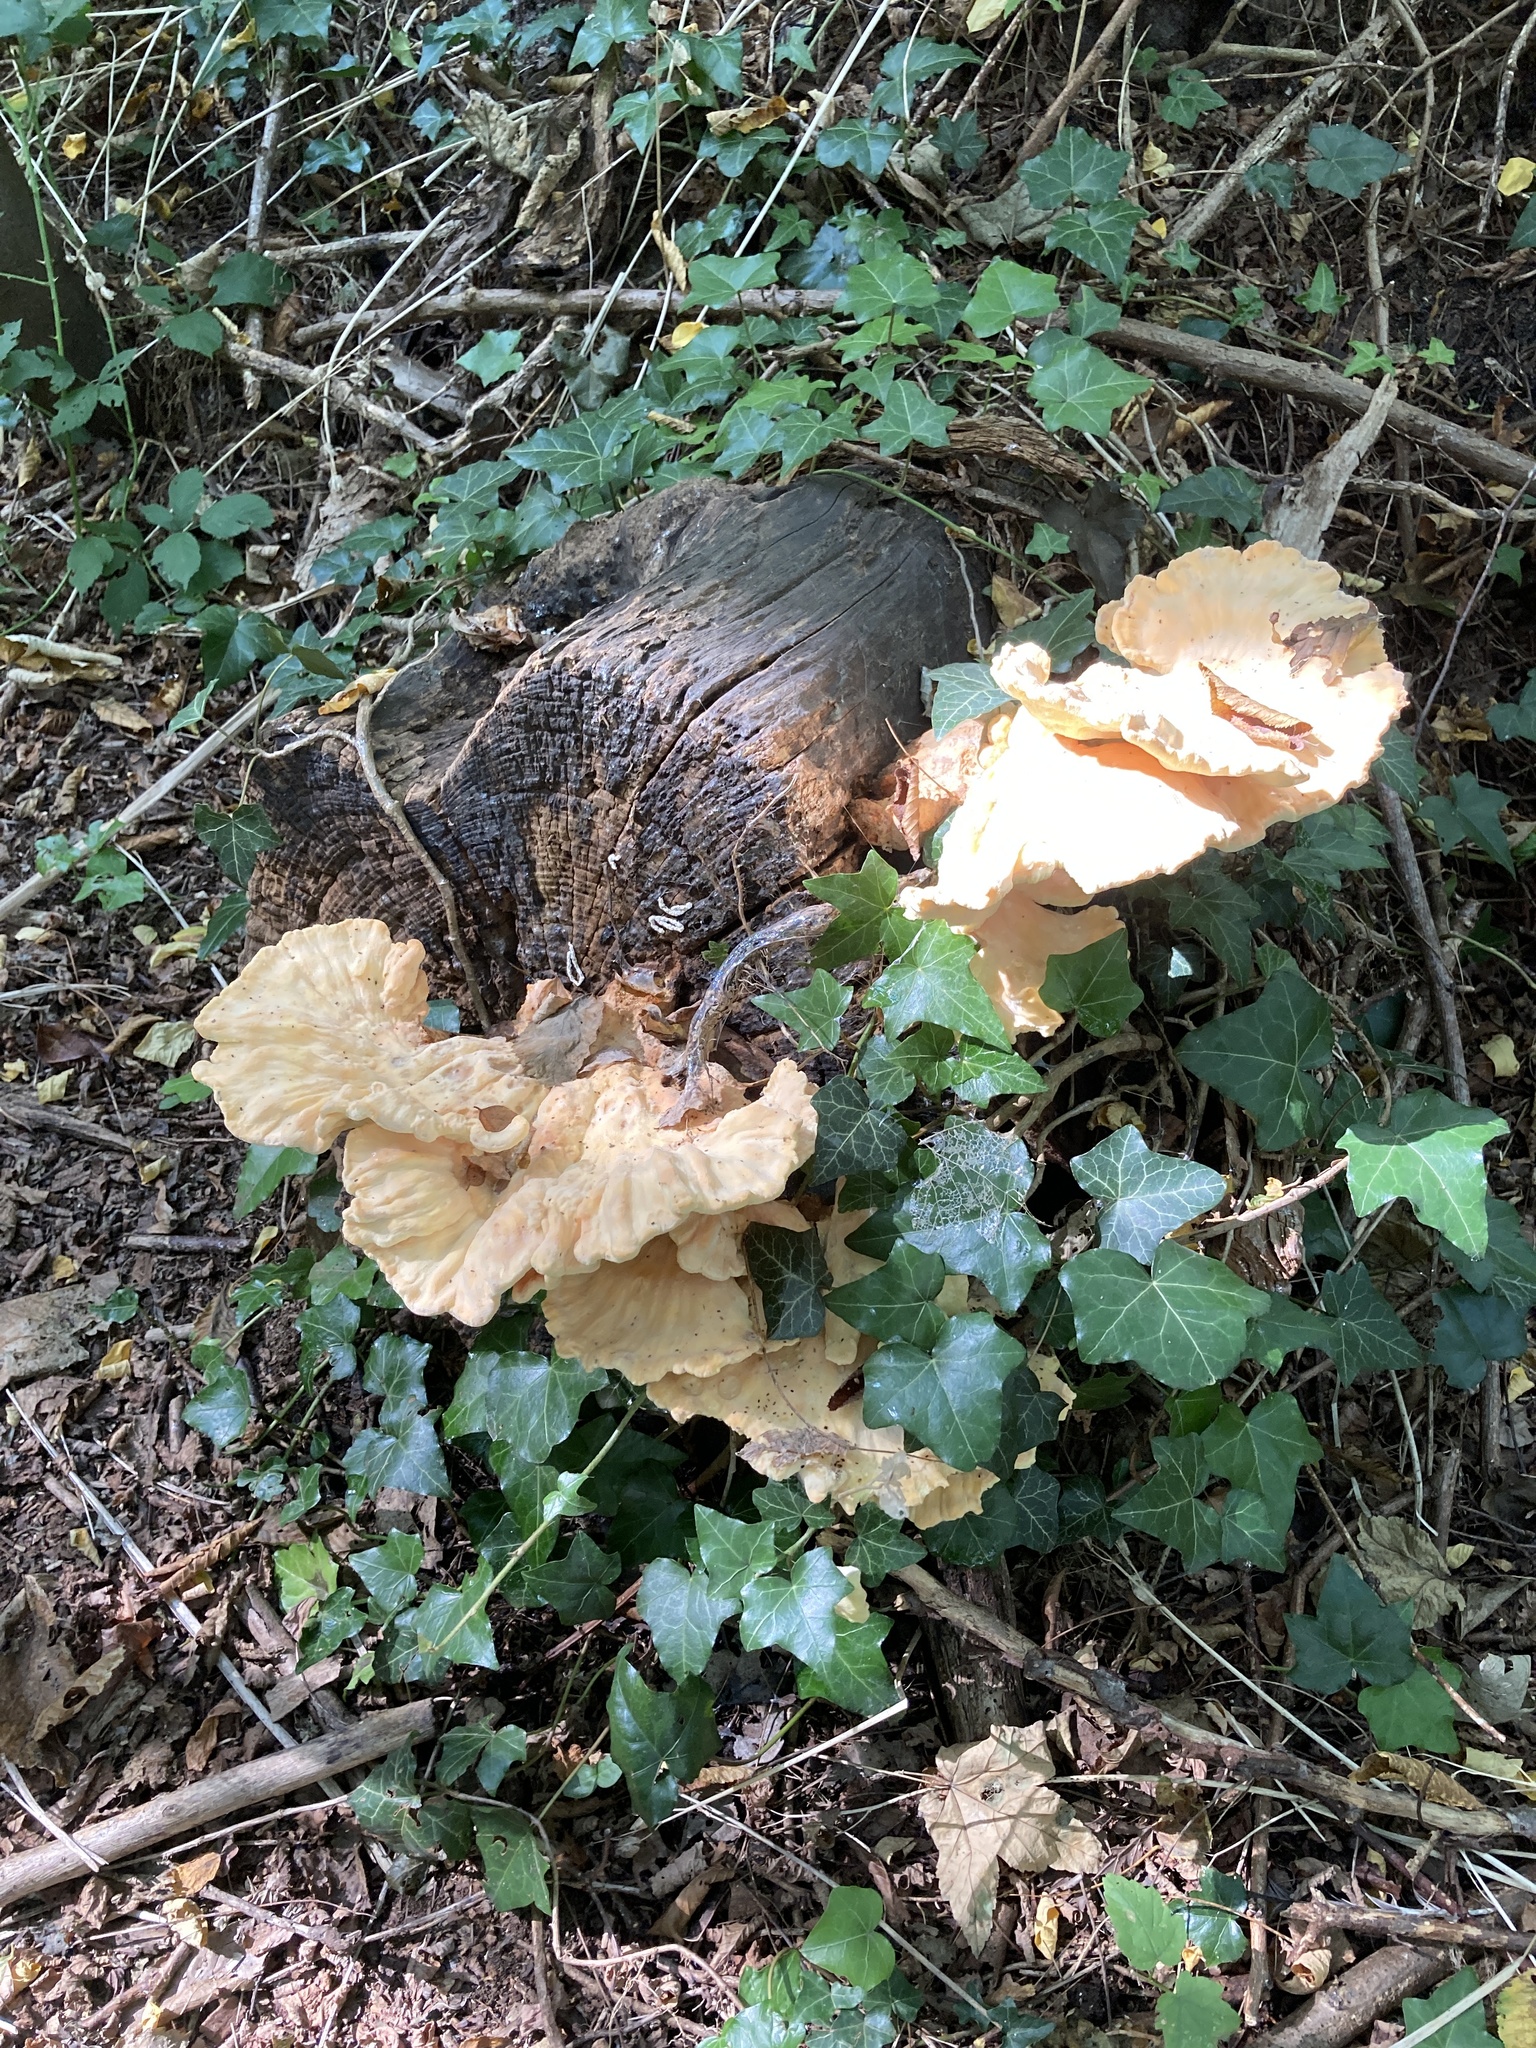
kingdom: Fungi
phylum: Basidiomycota
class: Agaricomycetes
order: Polyporales
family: Laetiporaceae
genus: Laetiporus
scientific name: Laetiporus sulphureus
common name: Chicken of the woods
